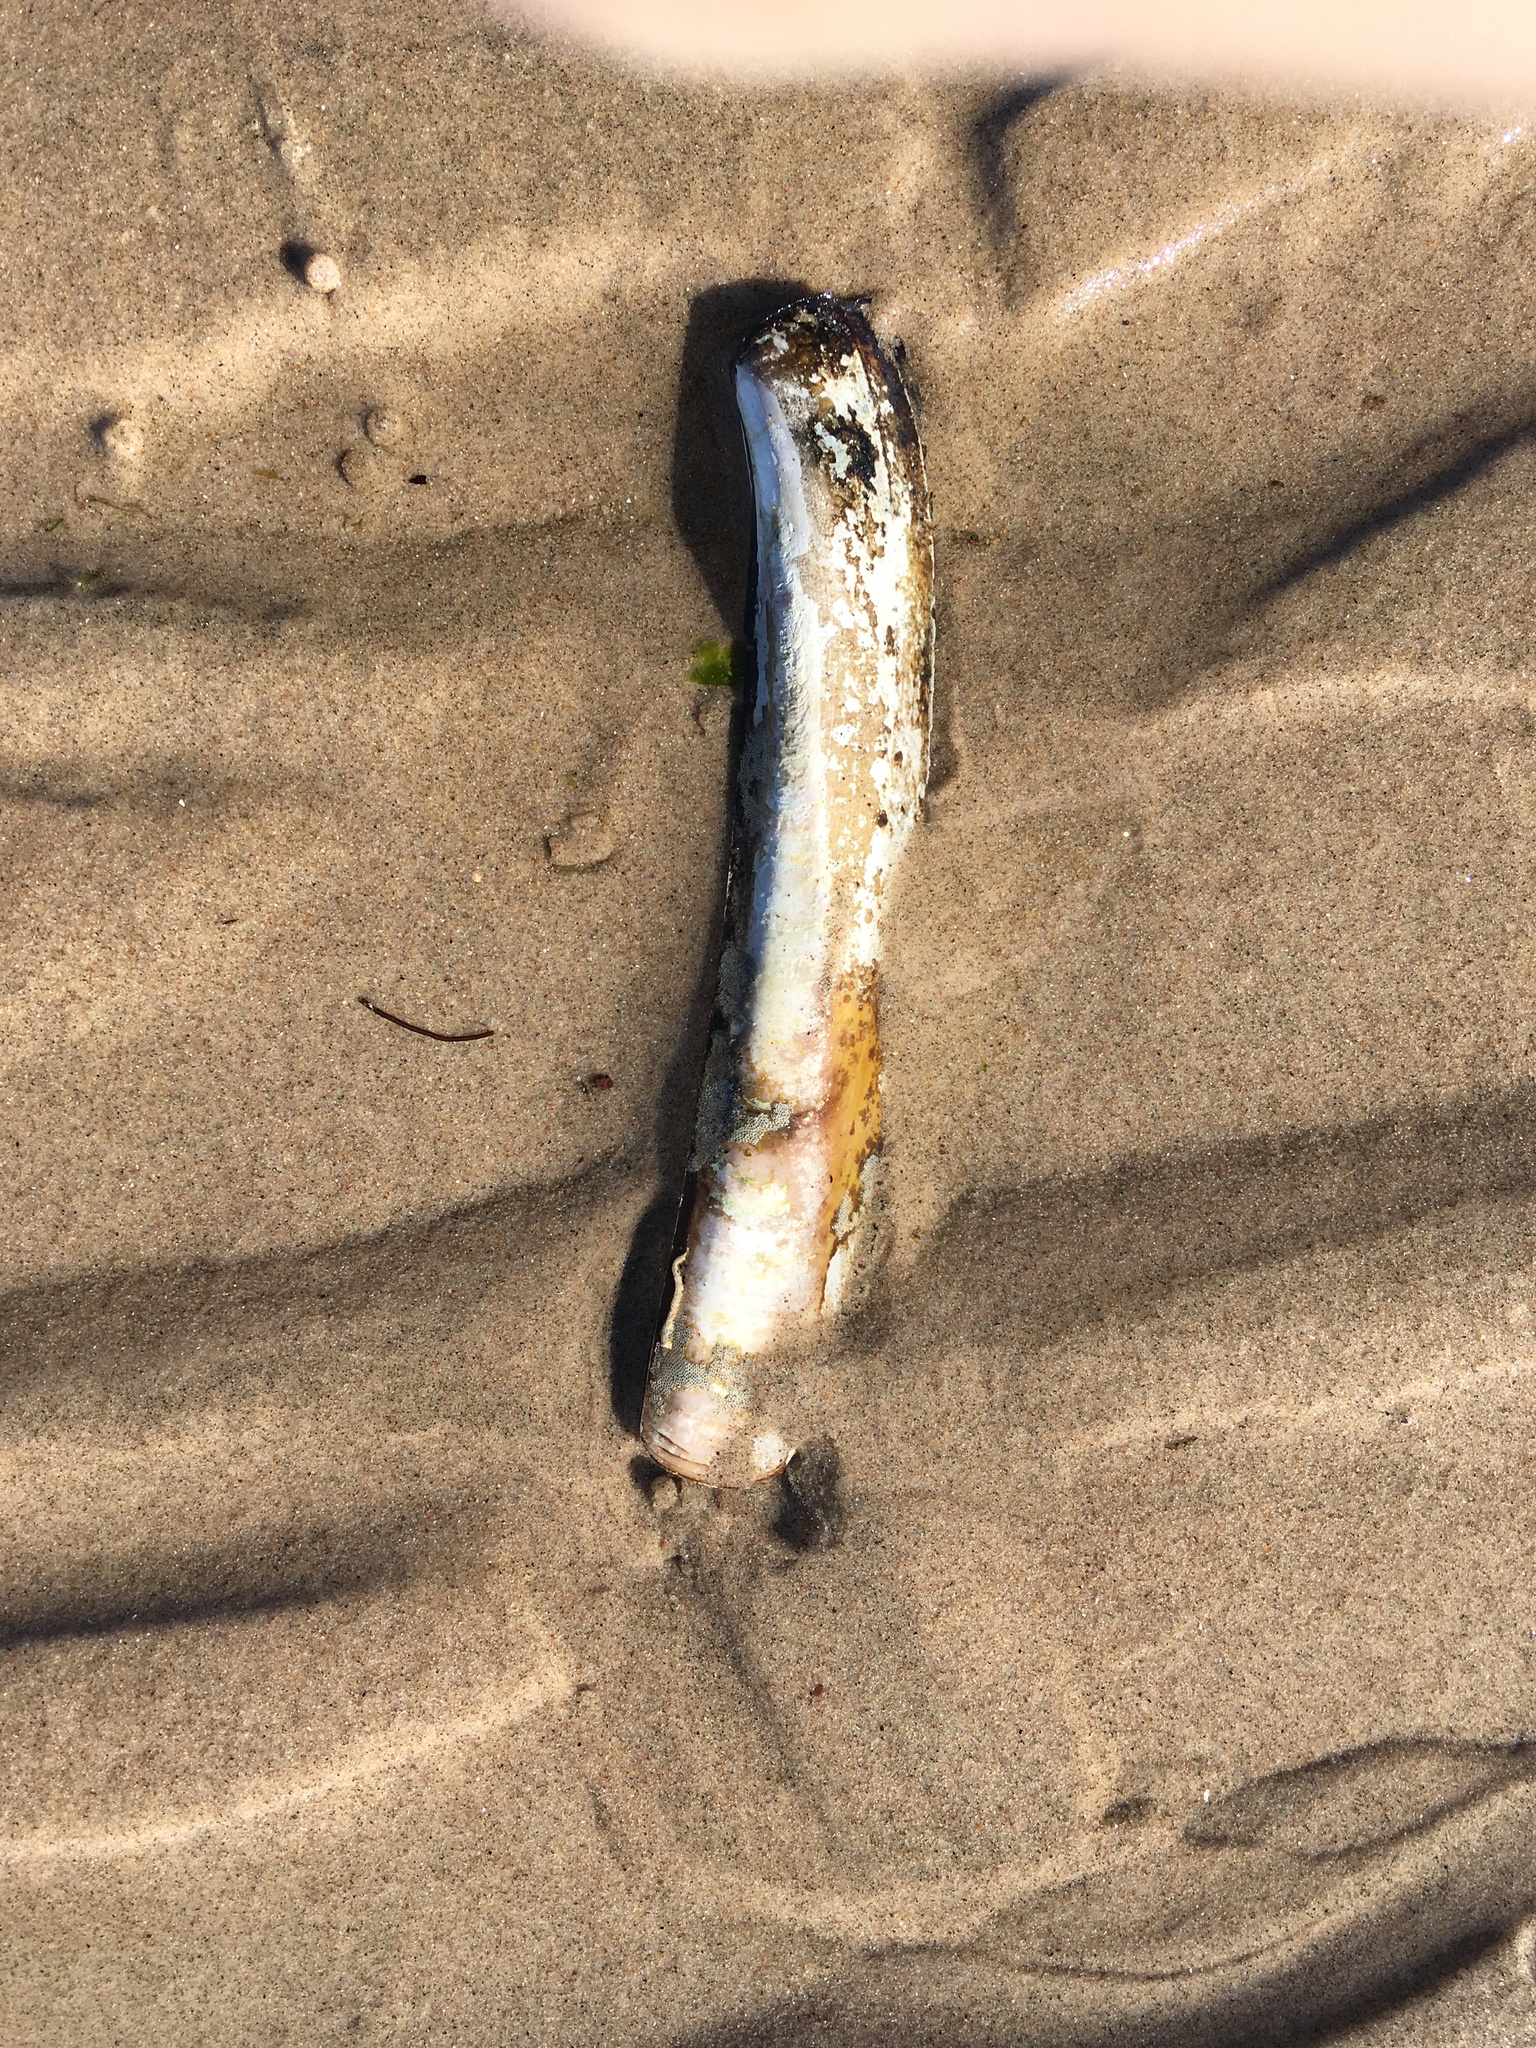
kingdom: Animalia
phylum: Mollusca
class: Bivalvia
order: Adapedonta
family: Pharidae
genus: Ensis
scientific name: Ensis leei
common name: American jack knife clam
